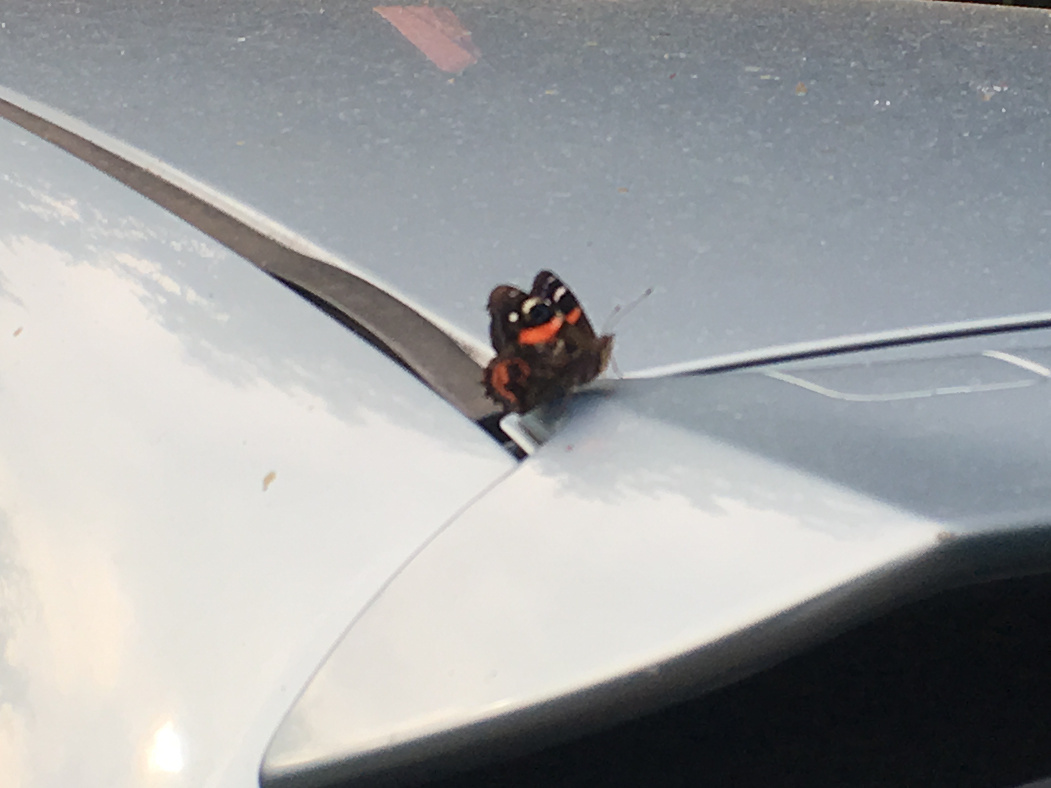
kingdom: Animalia
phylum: Arthropoda
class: Insecta
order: Lepidoptera
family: Nymphalidae
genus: Vanessa
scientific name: Vanessa gonerilla
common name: New zealand red admiral
